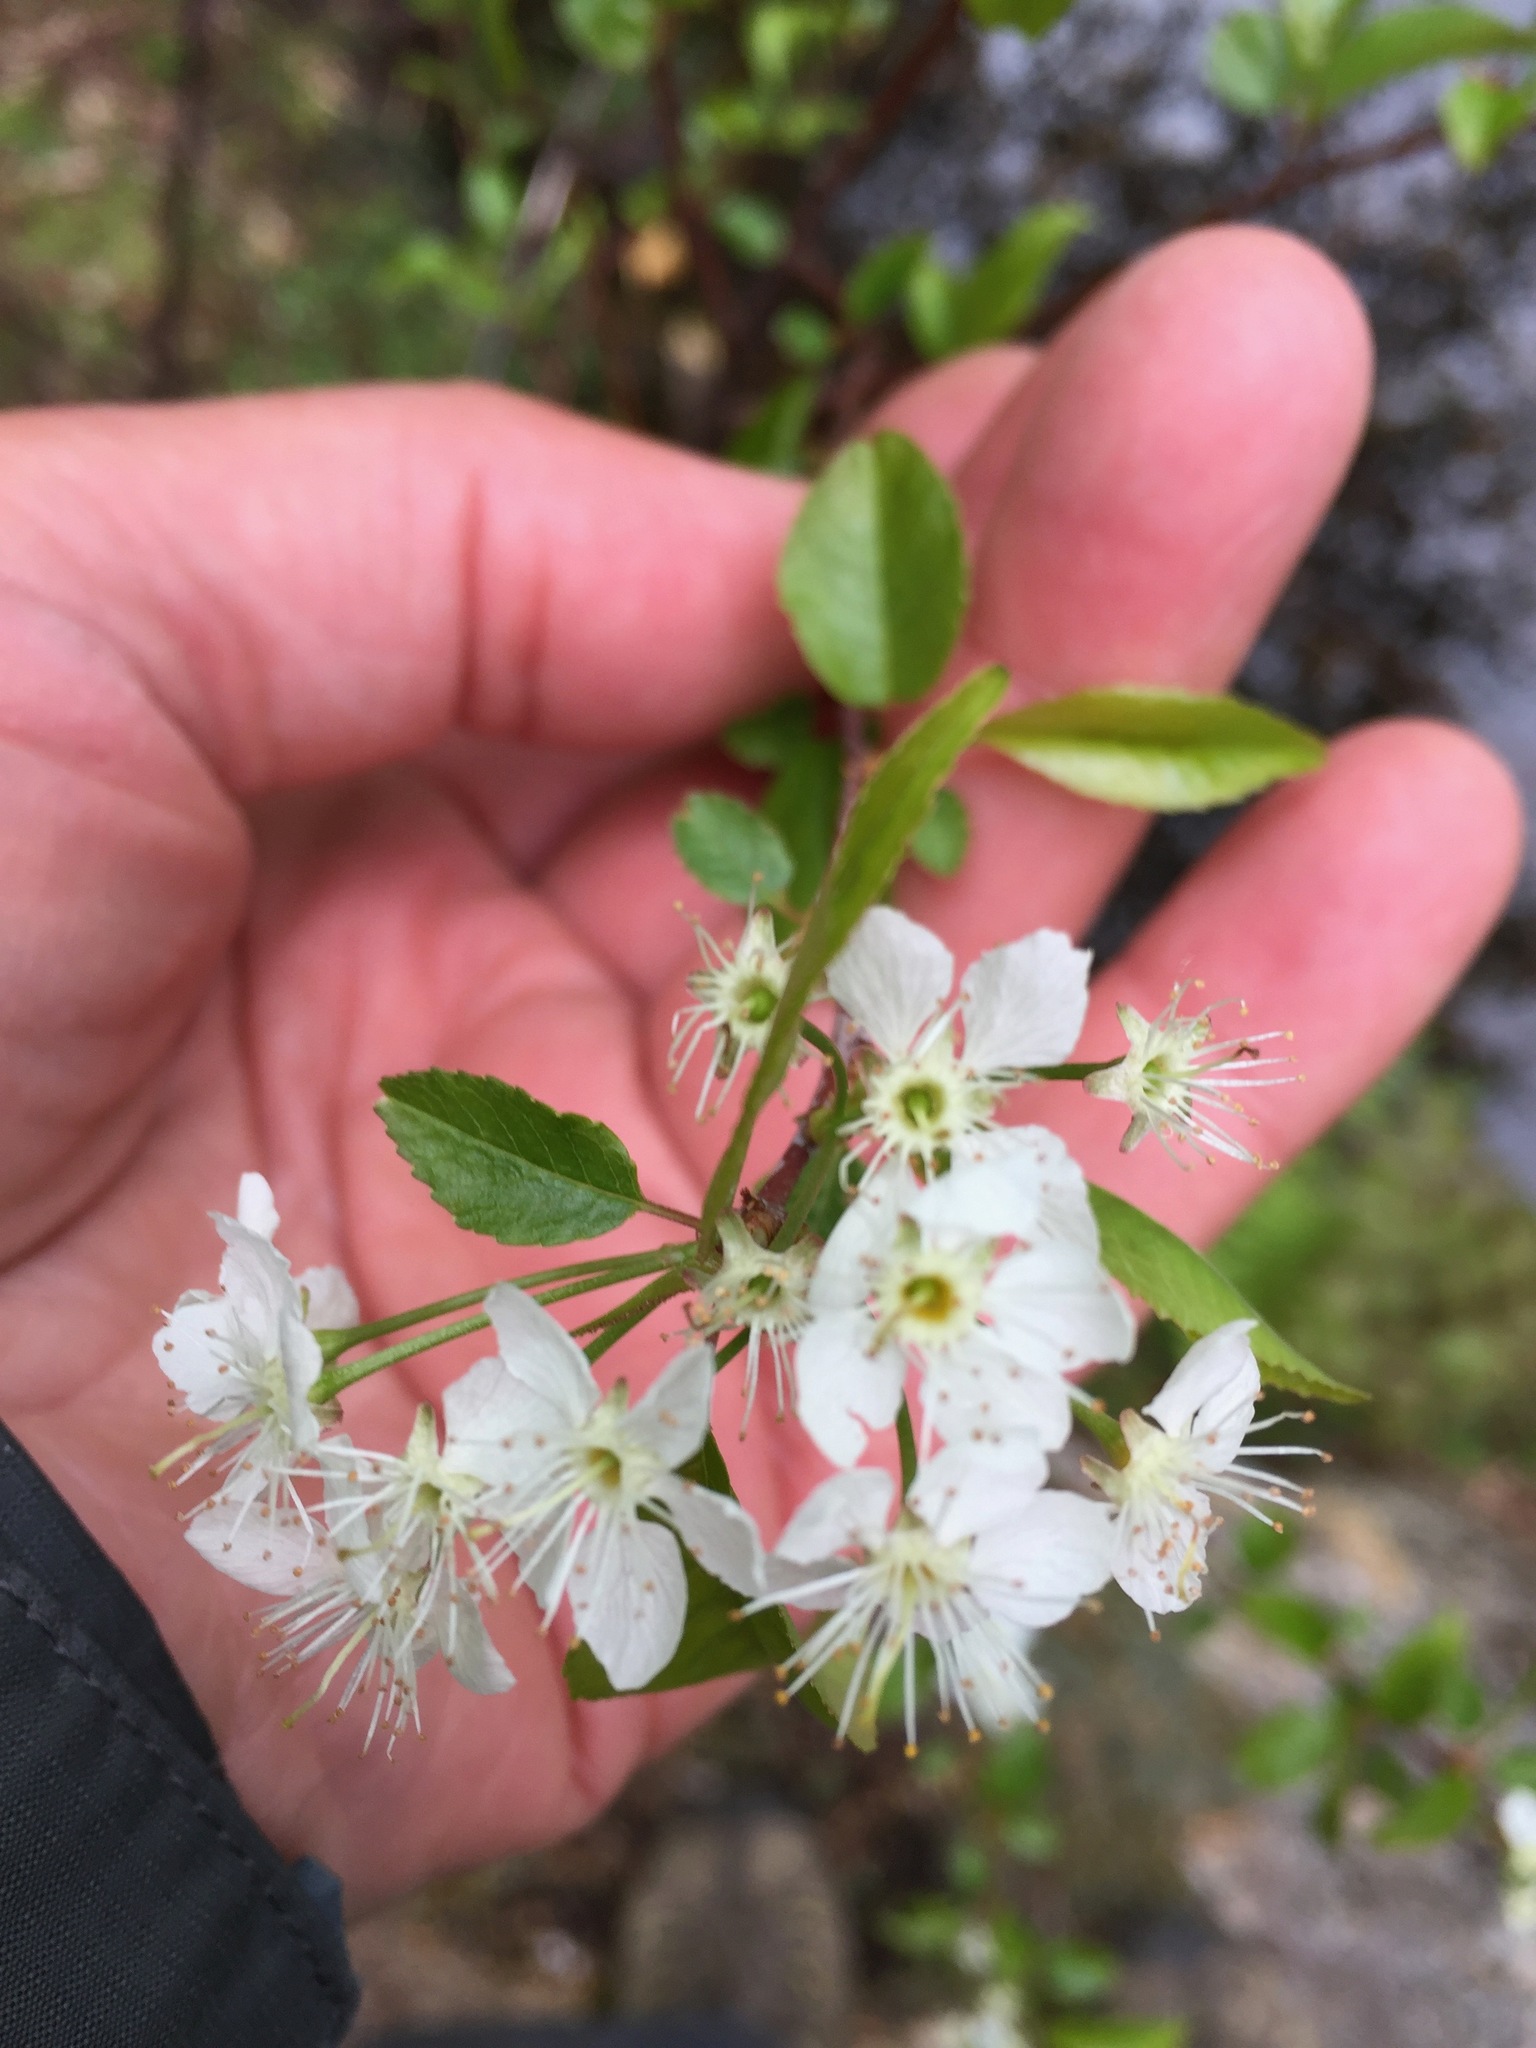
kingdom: Plantae
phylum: Tracheophyta
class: Magnoliopsida
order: Rosales
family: Rosaceae
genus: Prunus
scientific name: Prunus pensylvanica
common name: Pin cherry
